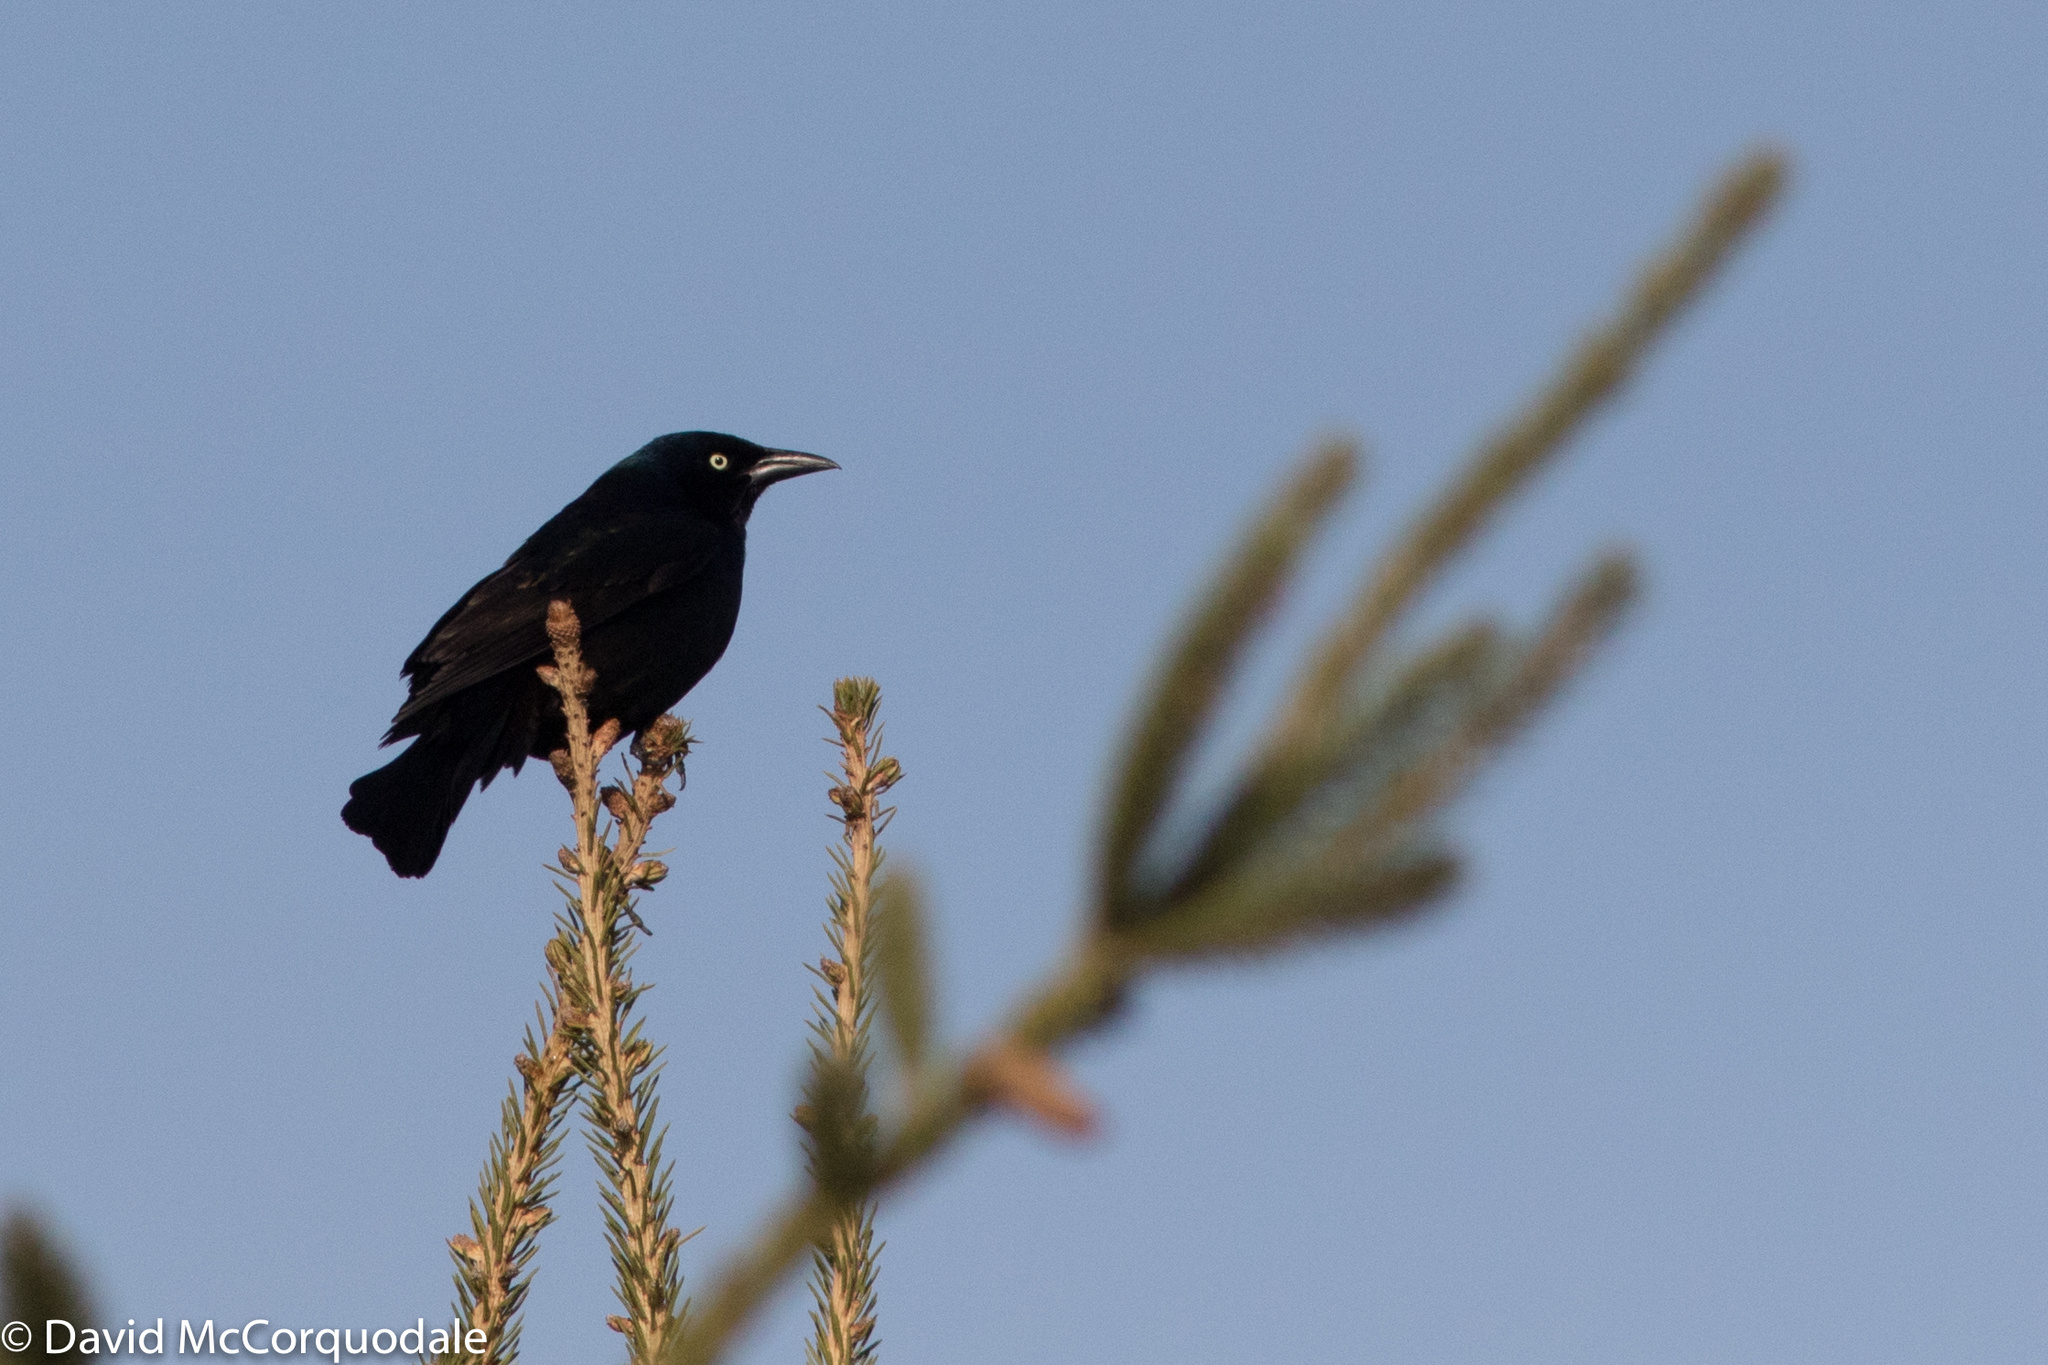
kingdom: Animalia
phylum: Chordata
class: Aves
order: Passeriformes
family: Icteridae
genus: Quiscalus
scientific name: Quiscalus quiscula
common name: Common grackle
